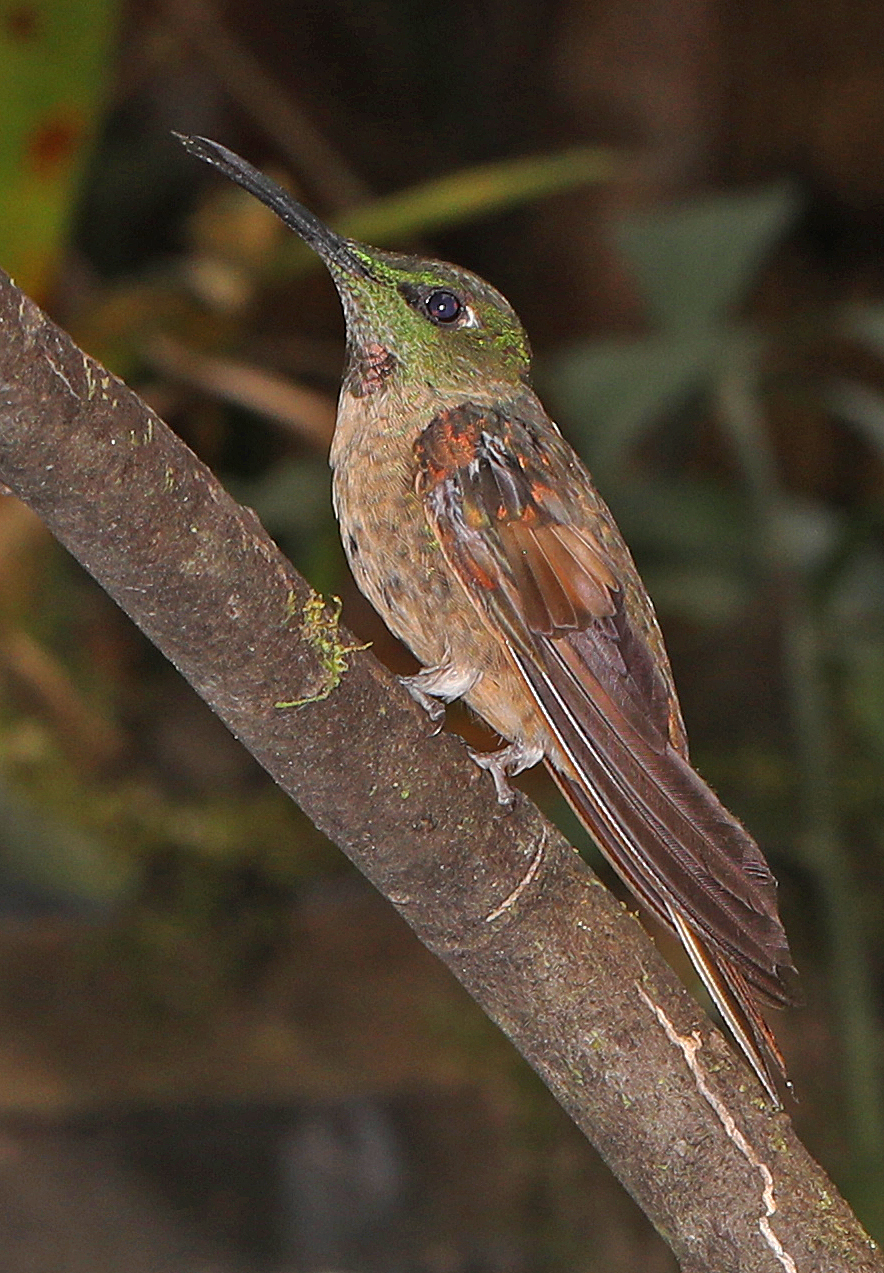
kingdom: Animalia
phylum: Chordata
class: Aves
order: Apodiformes
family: Trochilidae
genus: Heliodoxa
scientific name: Heliodoxa rubinoides
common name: Fawn-breasted brilliant
